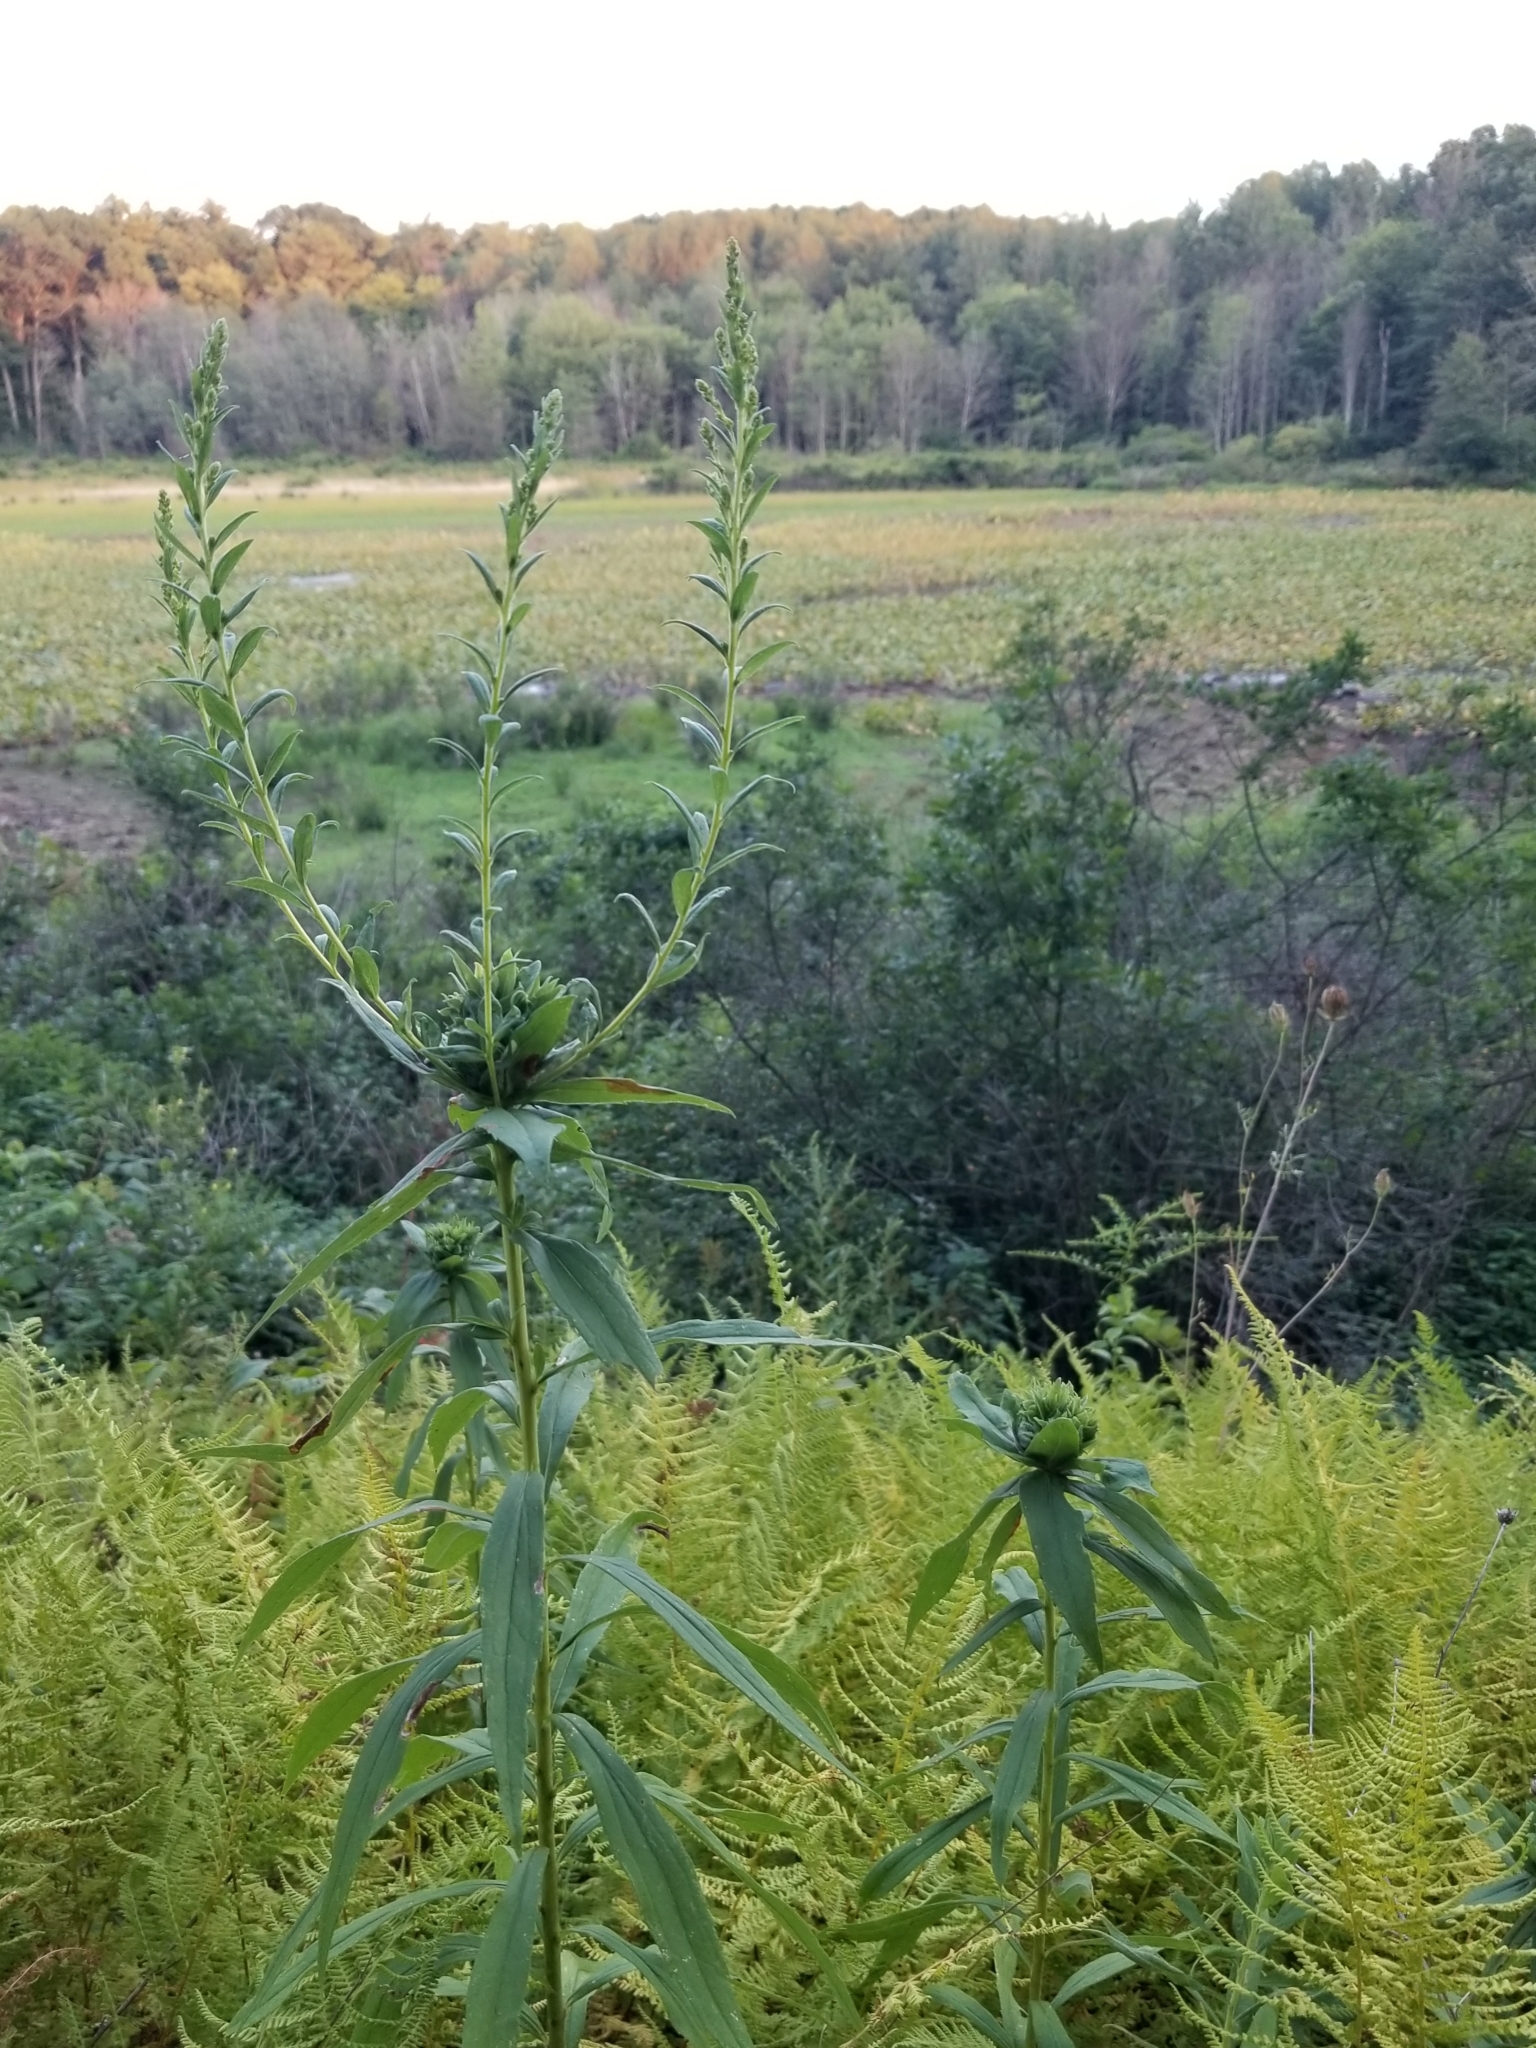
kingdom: Animalia
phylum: Arthropoda
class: Insecta
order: Diptera
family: Cecidomyiidae
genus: Rhopalomyia
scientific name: Rhopalomyia solidaginis
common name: Goldenrod bunch gall midge
